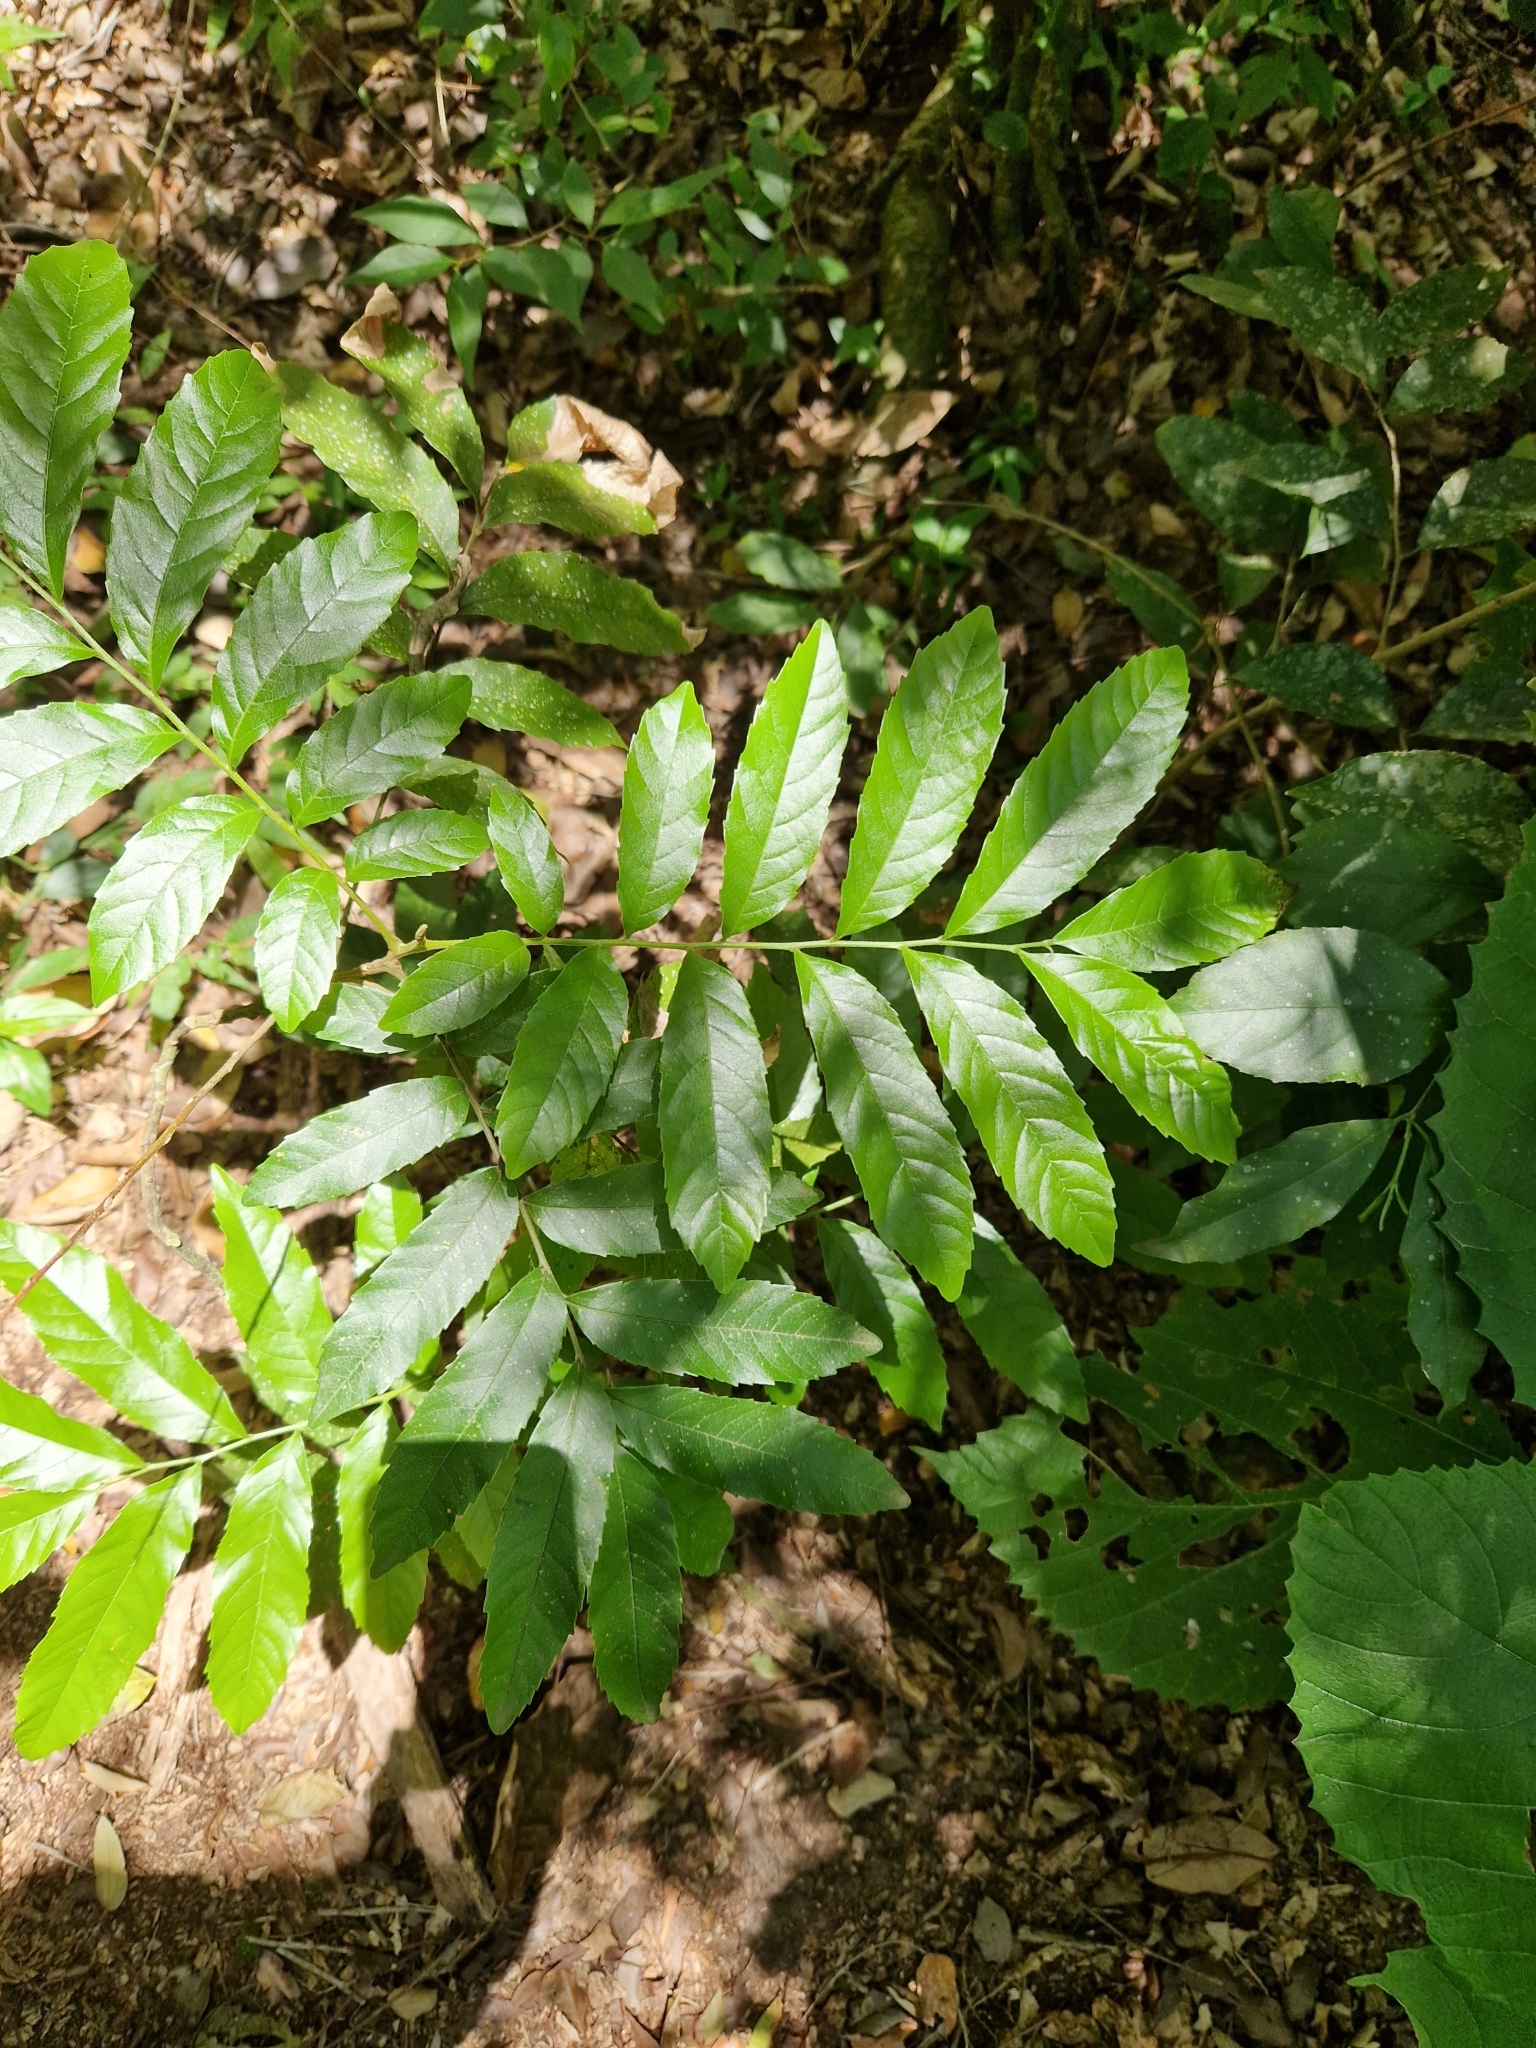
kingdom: Plantae
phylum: Tracheophyta
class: Magnoliopsida
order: Sapindales
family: Sapindaceae
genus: Cupania
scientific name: Cupania vernalis
